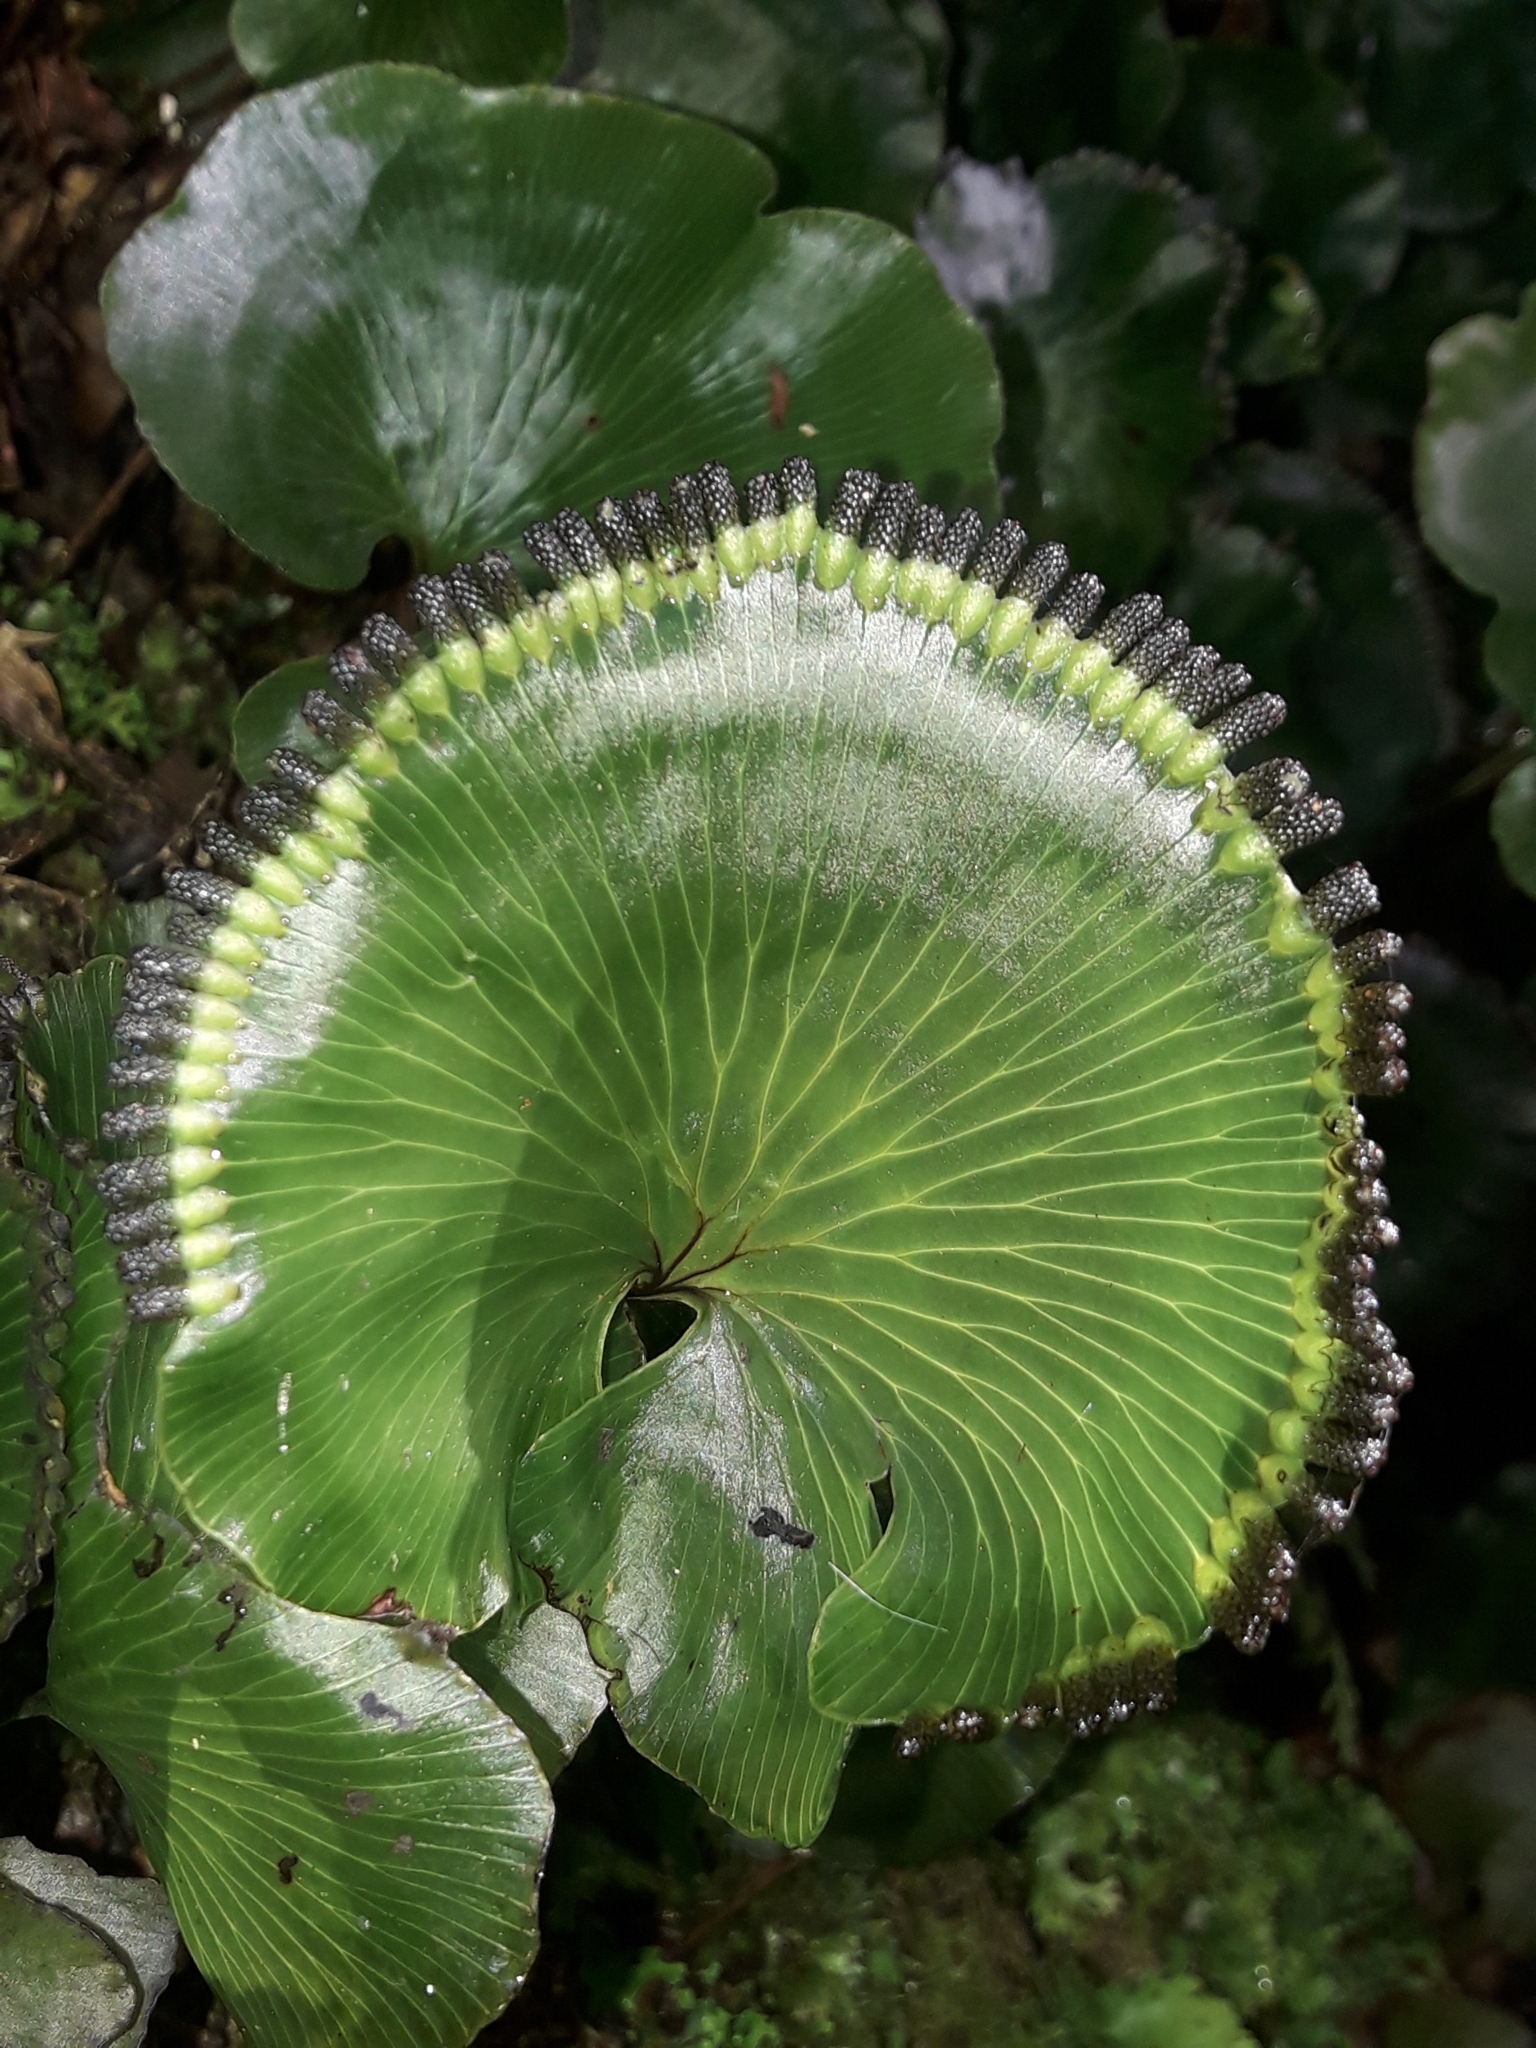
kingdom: Plantae
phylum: Tracheophyta
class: Polypodiopsida
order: Hymenophyllales
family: Hymenophyllaceae
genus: Hymenophyllum
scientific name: Hymenophyllum nephrophyllum
